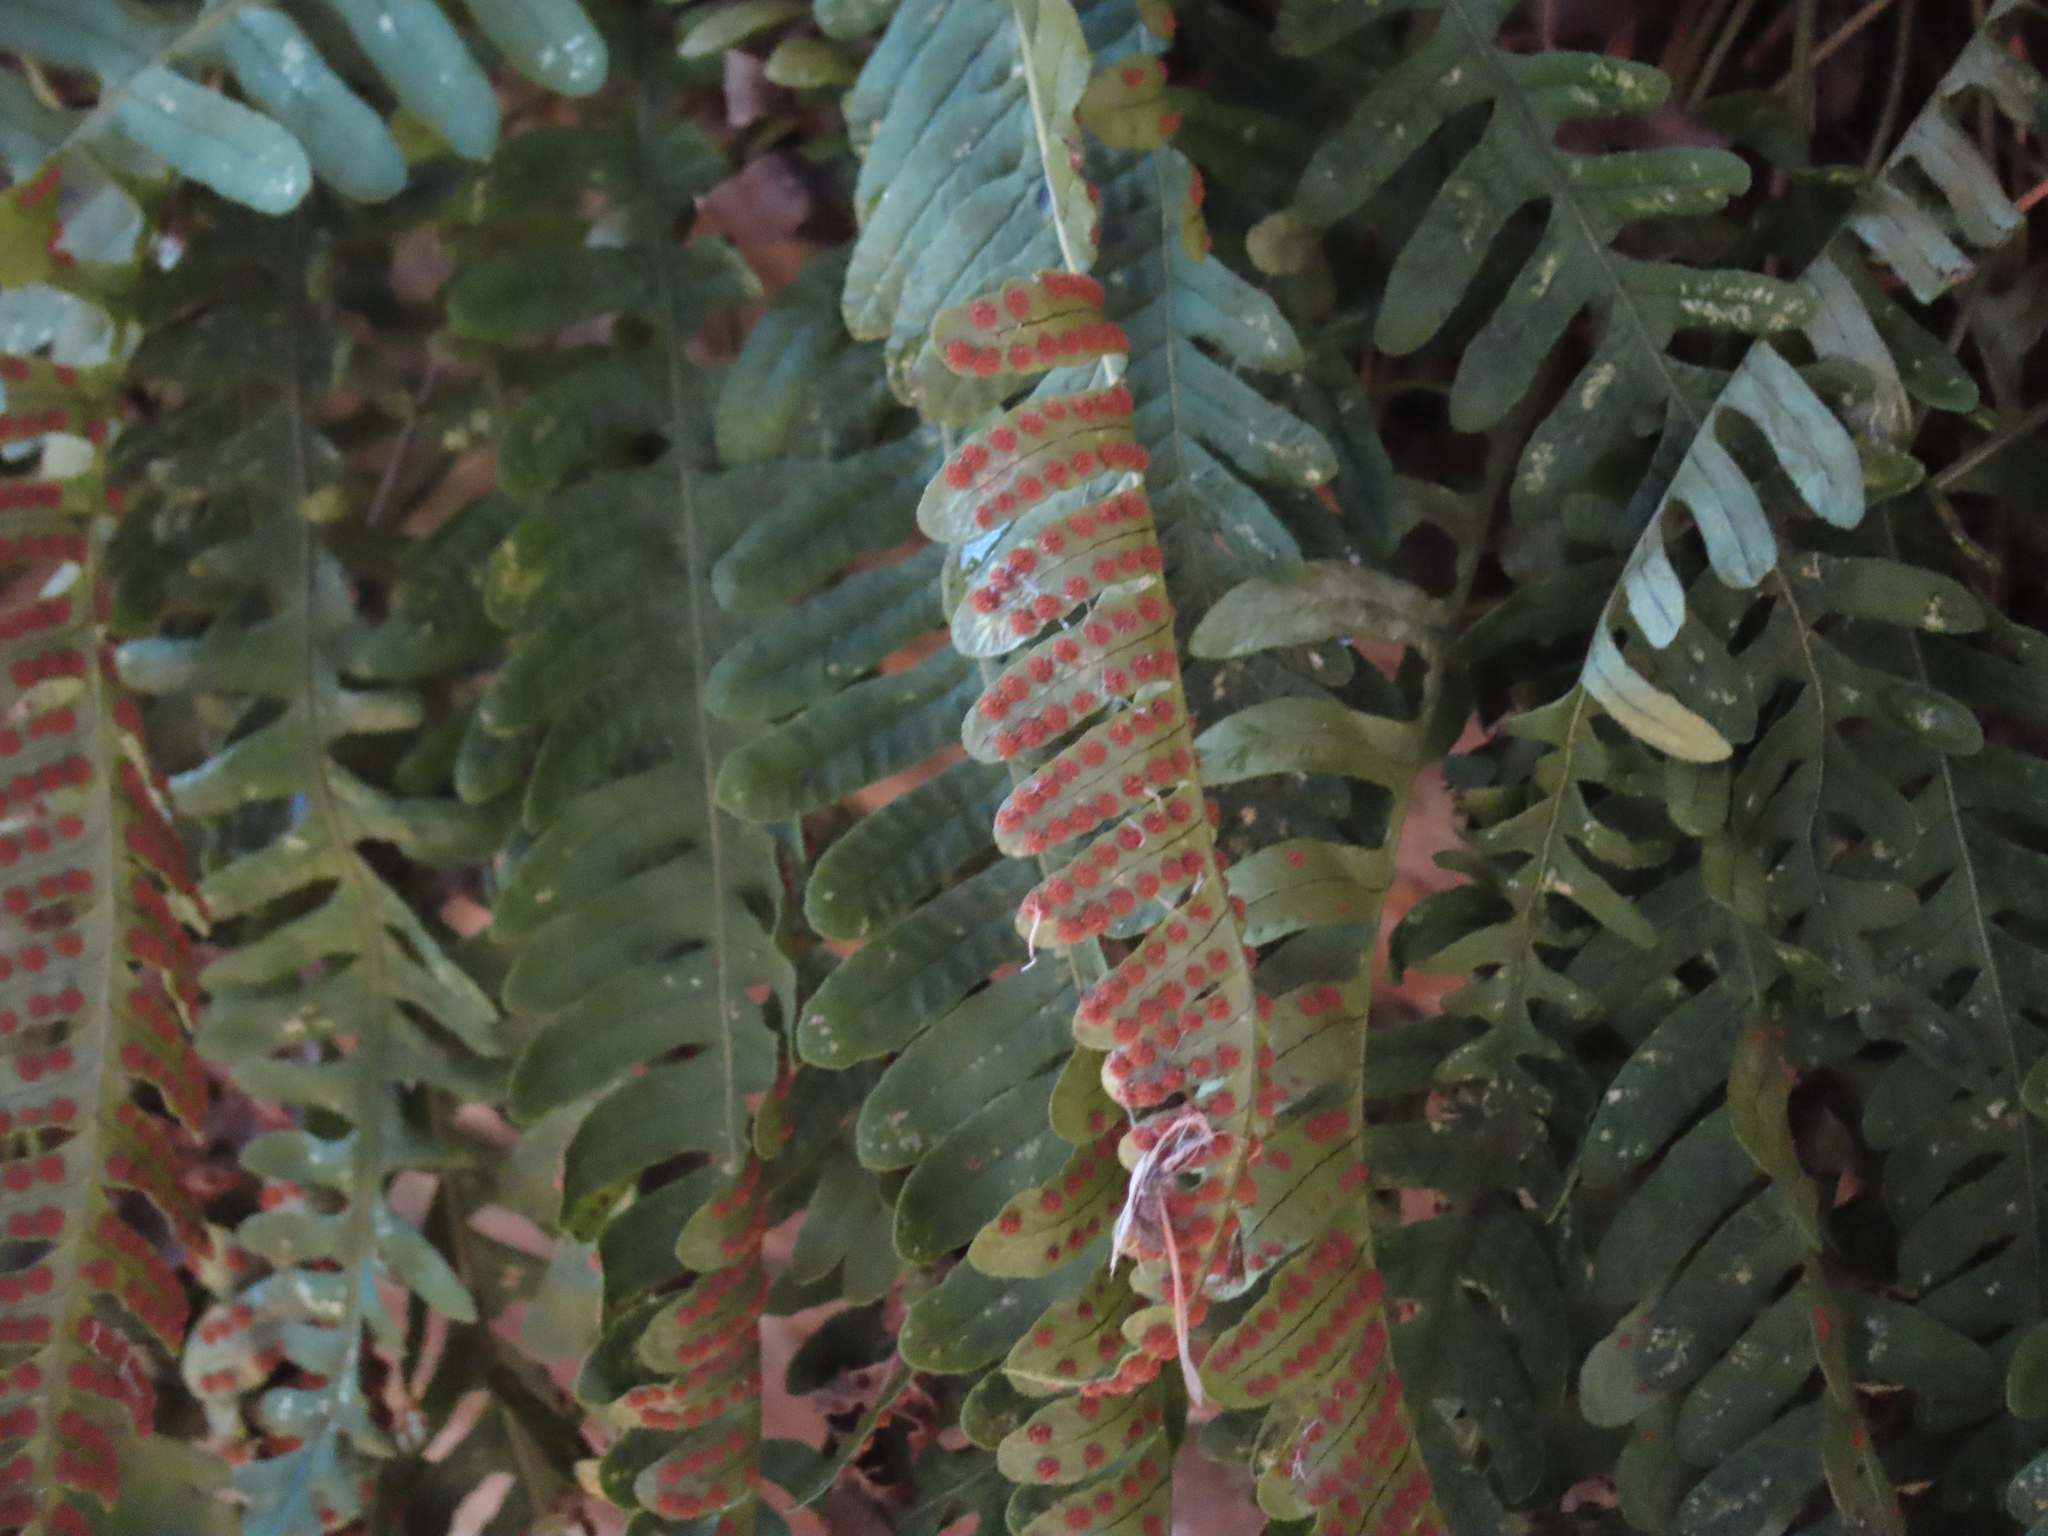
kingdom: Plantae
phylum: Tracheophyta
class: Polypodiopsida
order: Polypodiales
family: Polypodiaceae
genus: Polypodium
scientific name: Polypodium virginianum
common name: American wall fern
